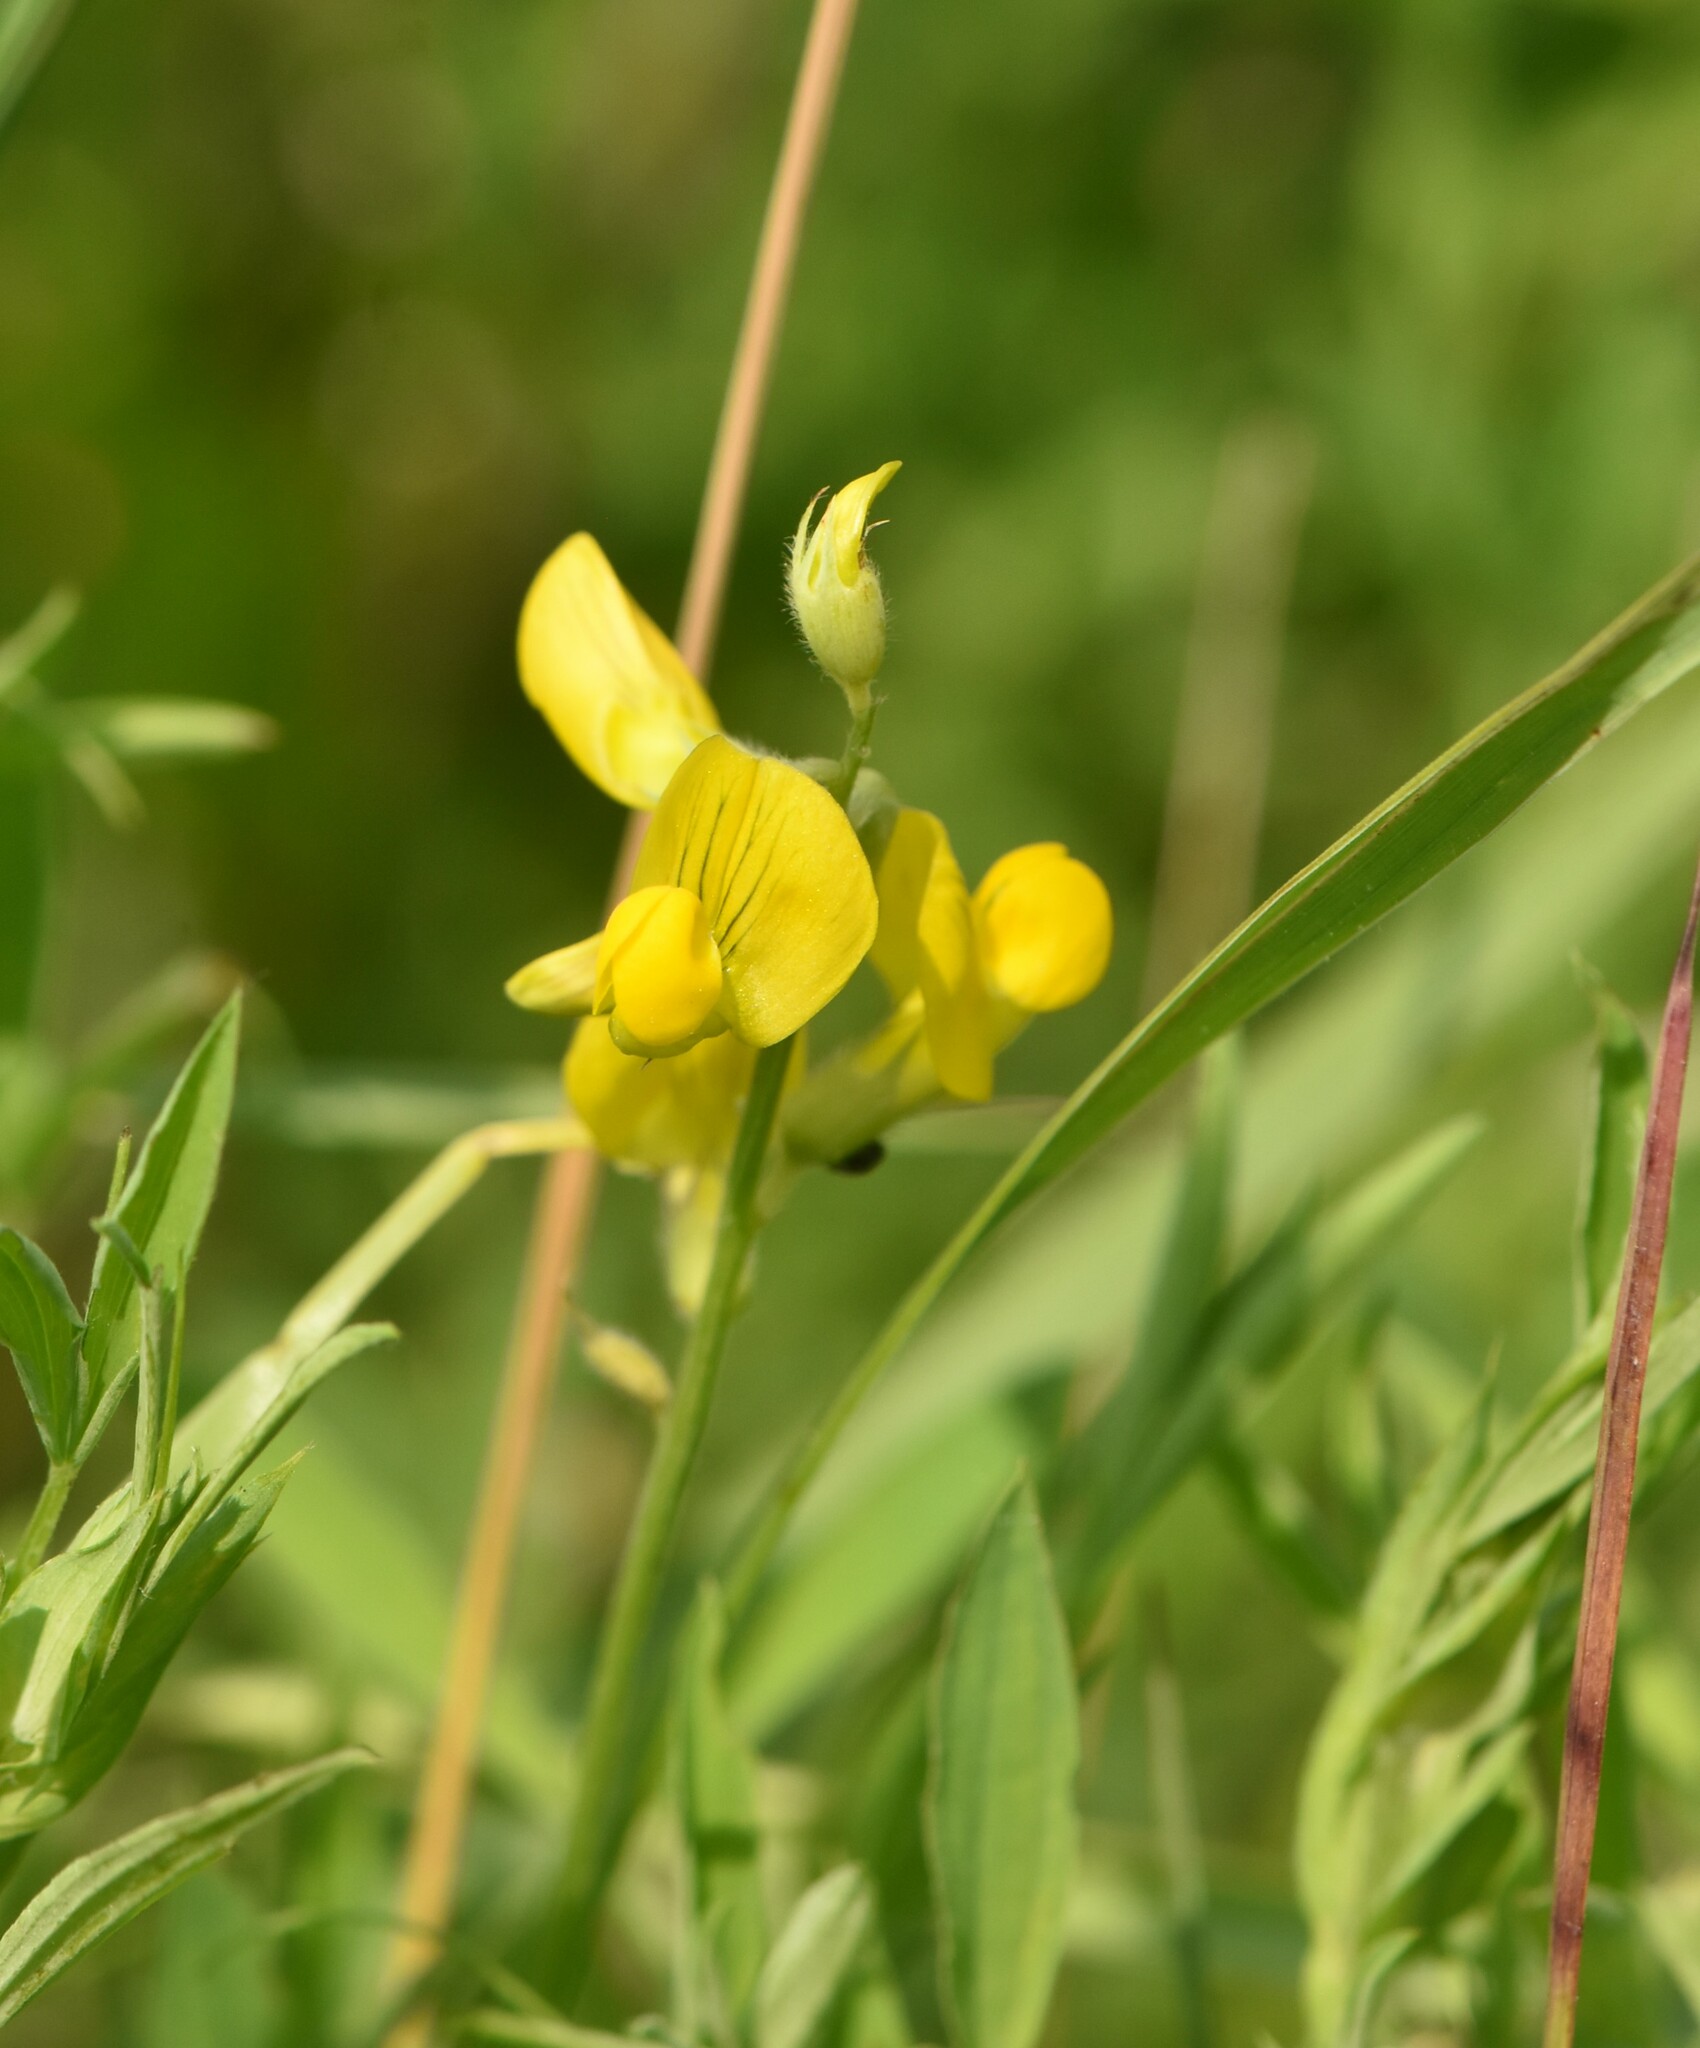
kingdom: Plantae
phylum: Tracheophyta
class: Magnoliopsida
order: Fabales
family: Fabaceae
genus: Lathyrus
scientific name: Lathyrus pratensis
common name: Meadow vetchling
